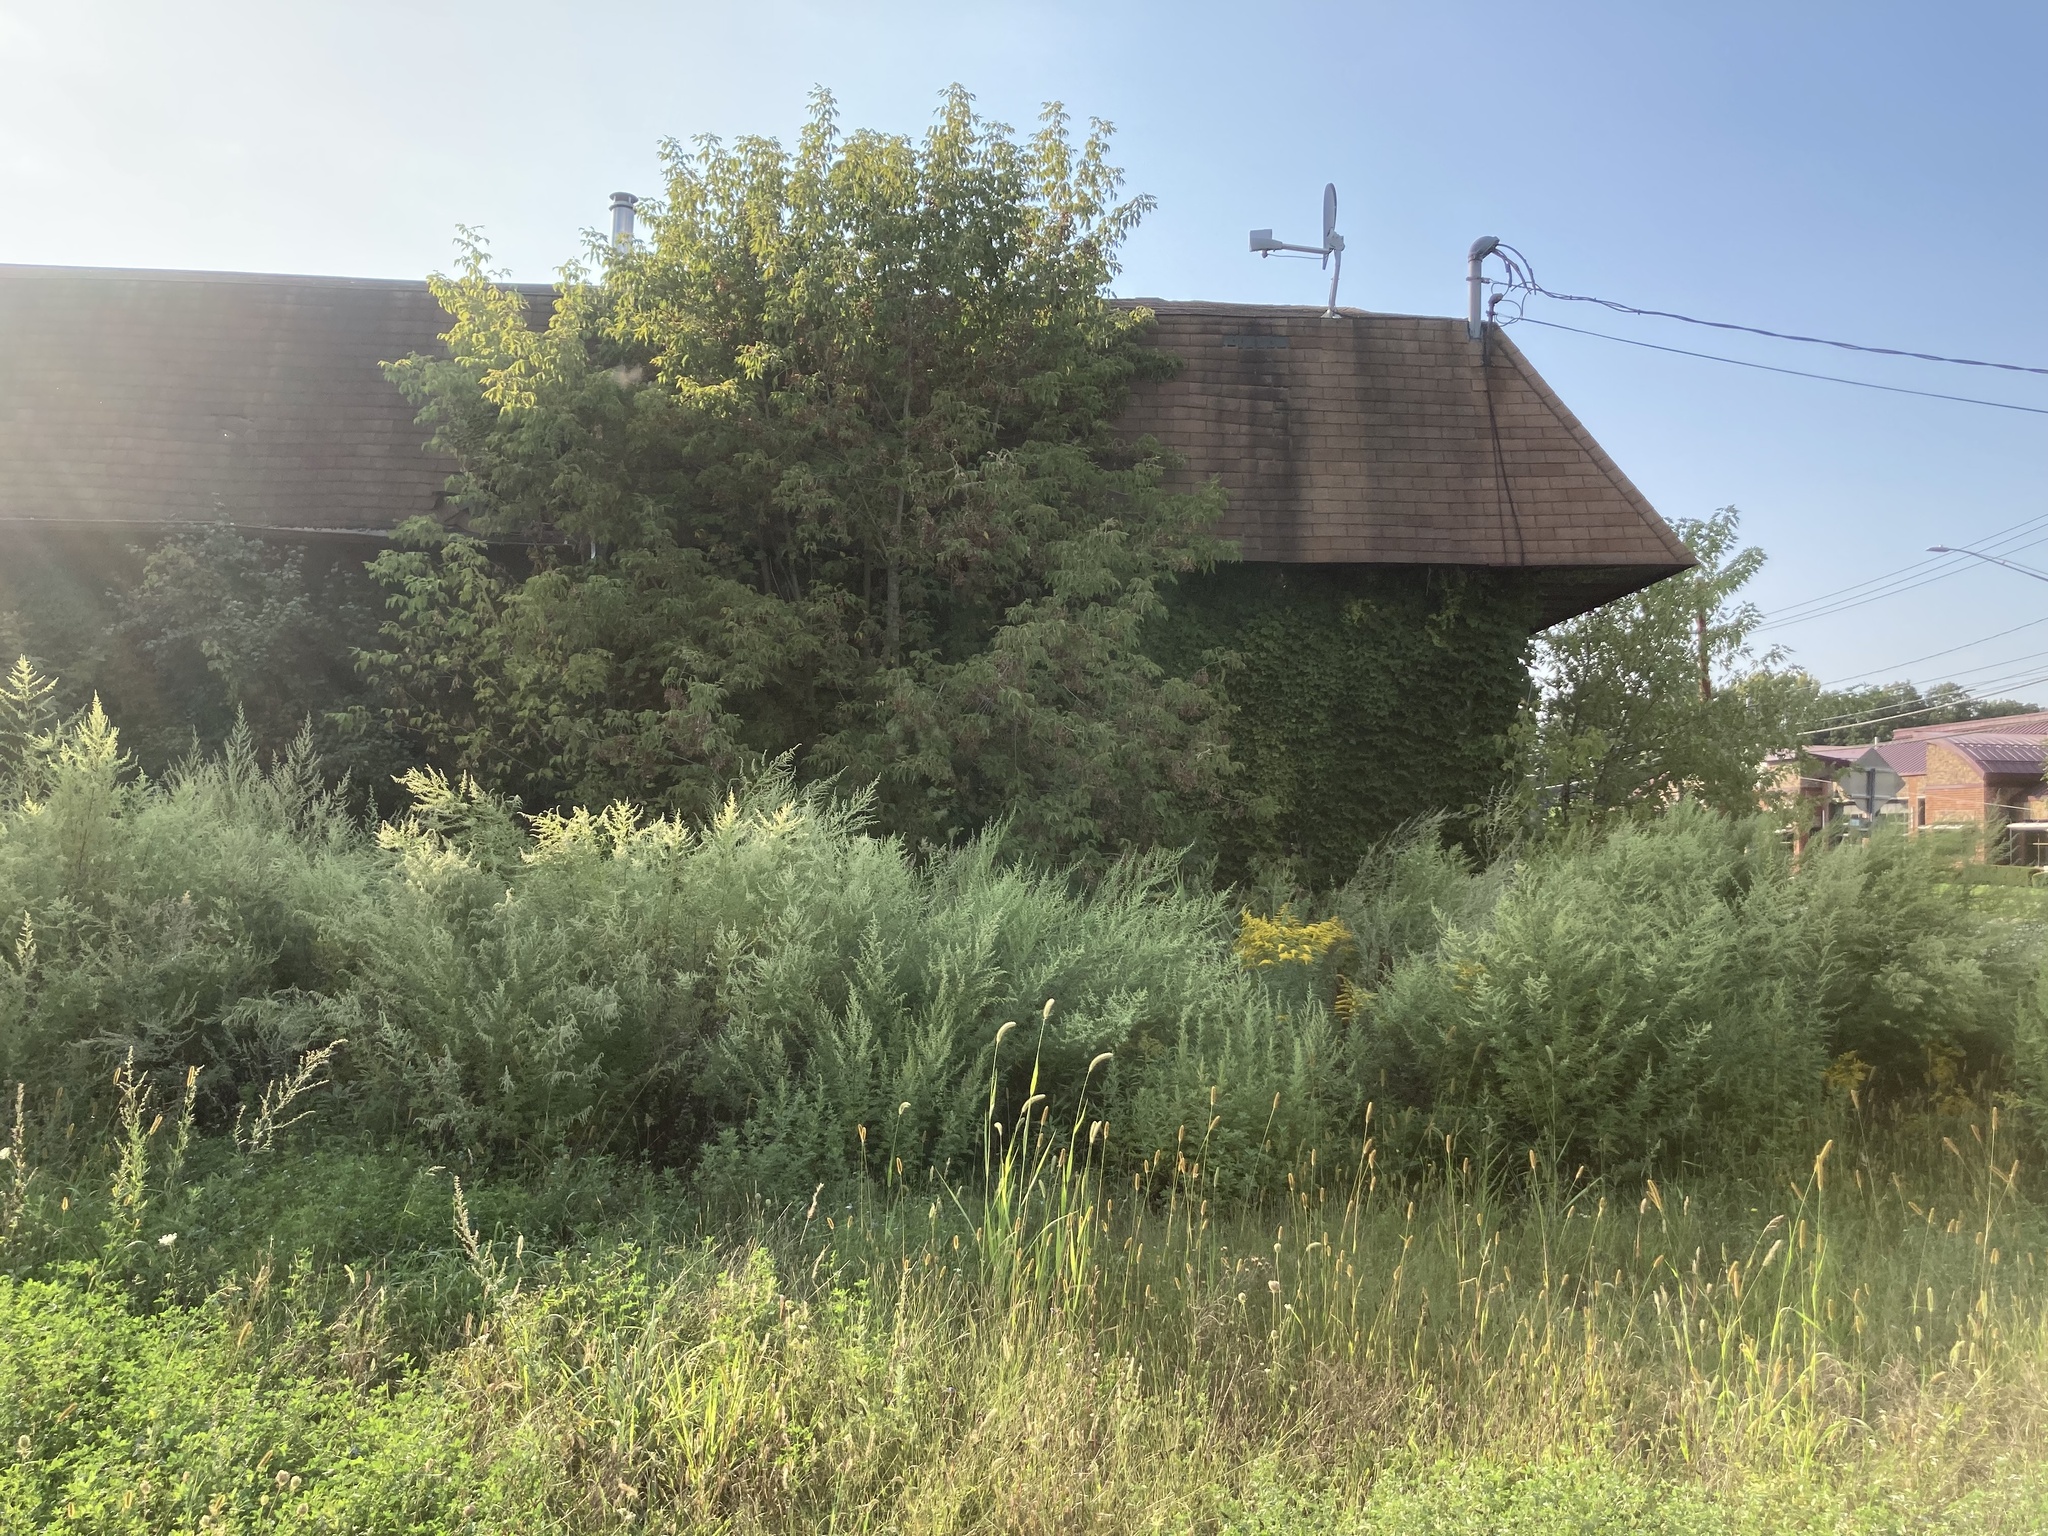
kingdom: Plantae
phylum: Tracheophyta
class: Magnoliopsida
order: Sapindales
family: Sapindaceae
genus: Acer
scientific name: Acer negundo
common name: Ashleaf maple
